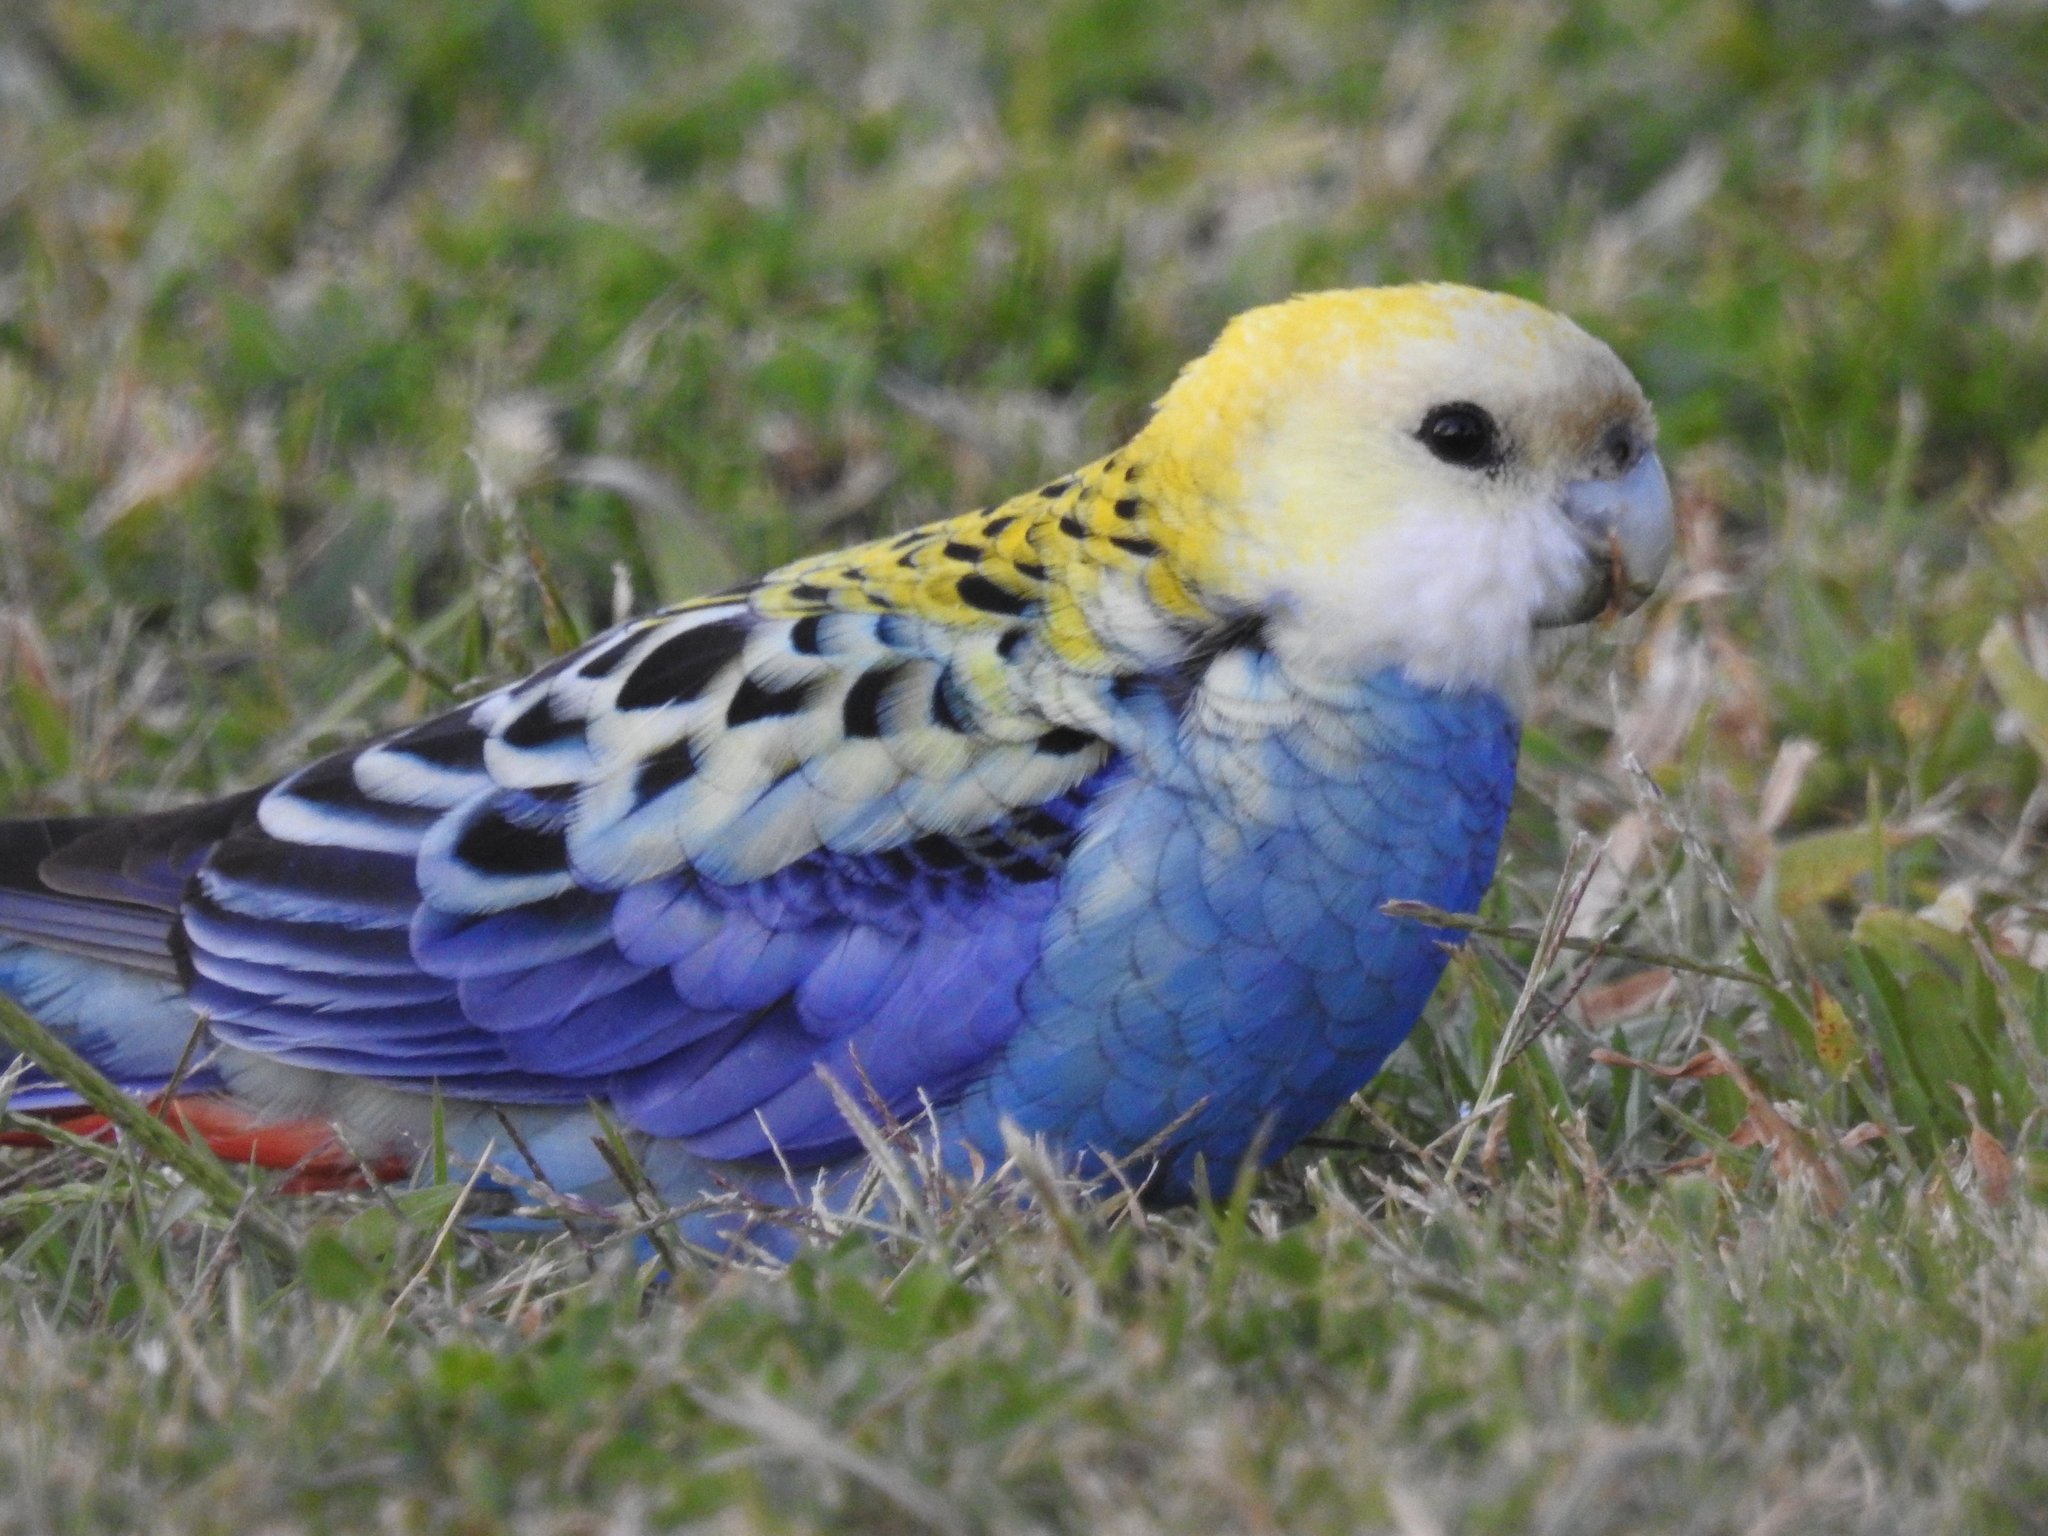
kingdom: Animalia
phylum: Chordata
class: Aves
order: Psittaciformes
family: Psittacidae
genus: Platycercus
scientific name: Platycercus adscitus
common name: Pale-headed rosella
